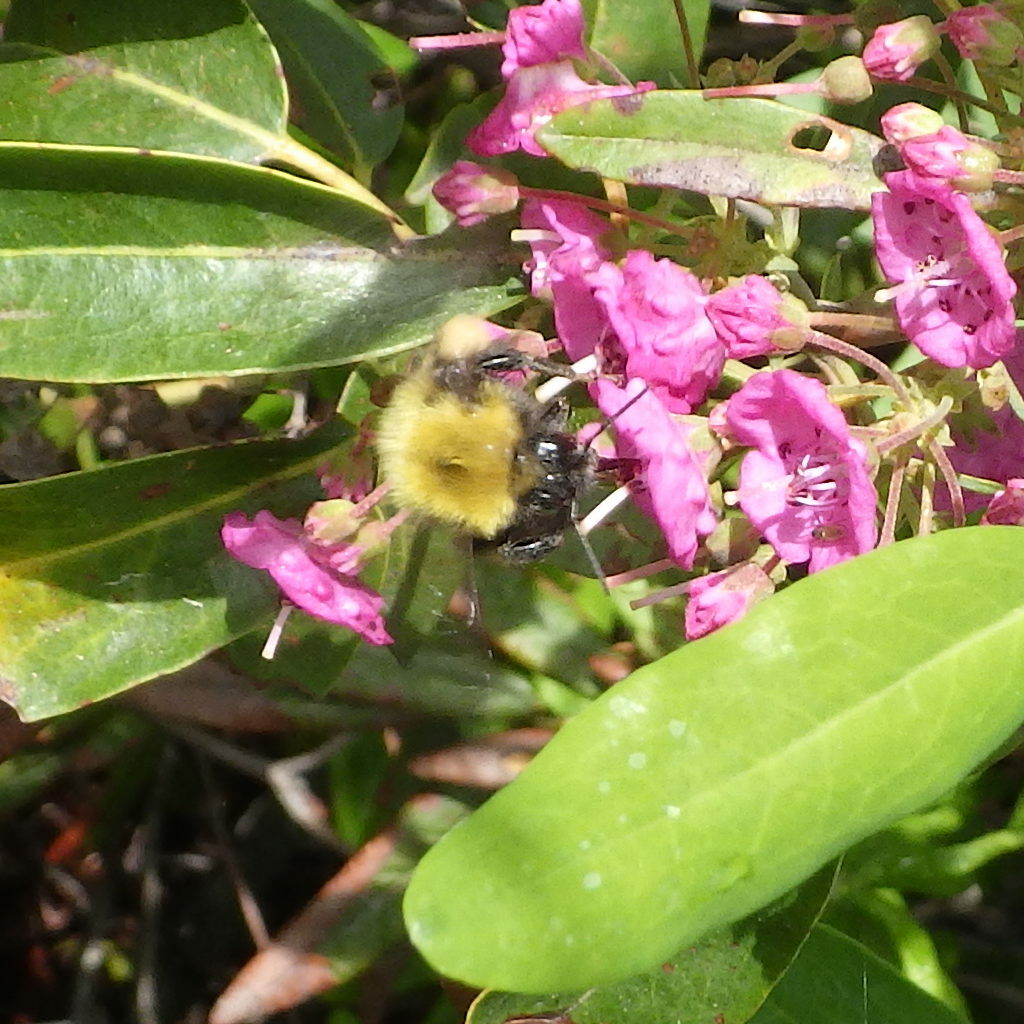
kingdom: Animalia
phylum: Arthropoda
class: Insecta
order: Hymenoptera
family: Apidae
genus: Bombus
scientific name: Bombus perplexus
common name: Confusing bumble bee
